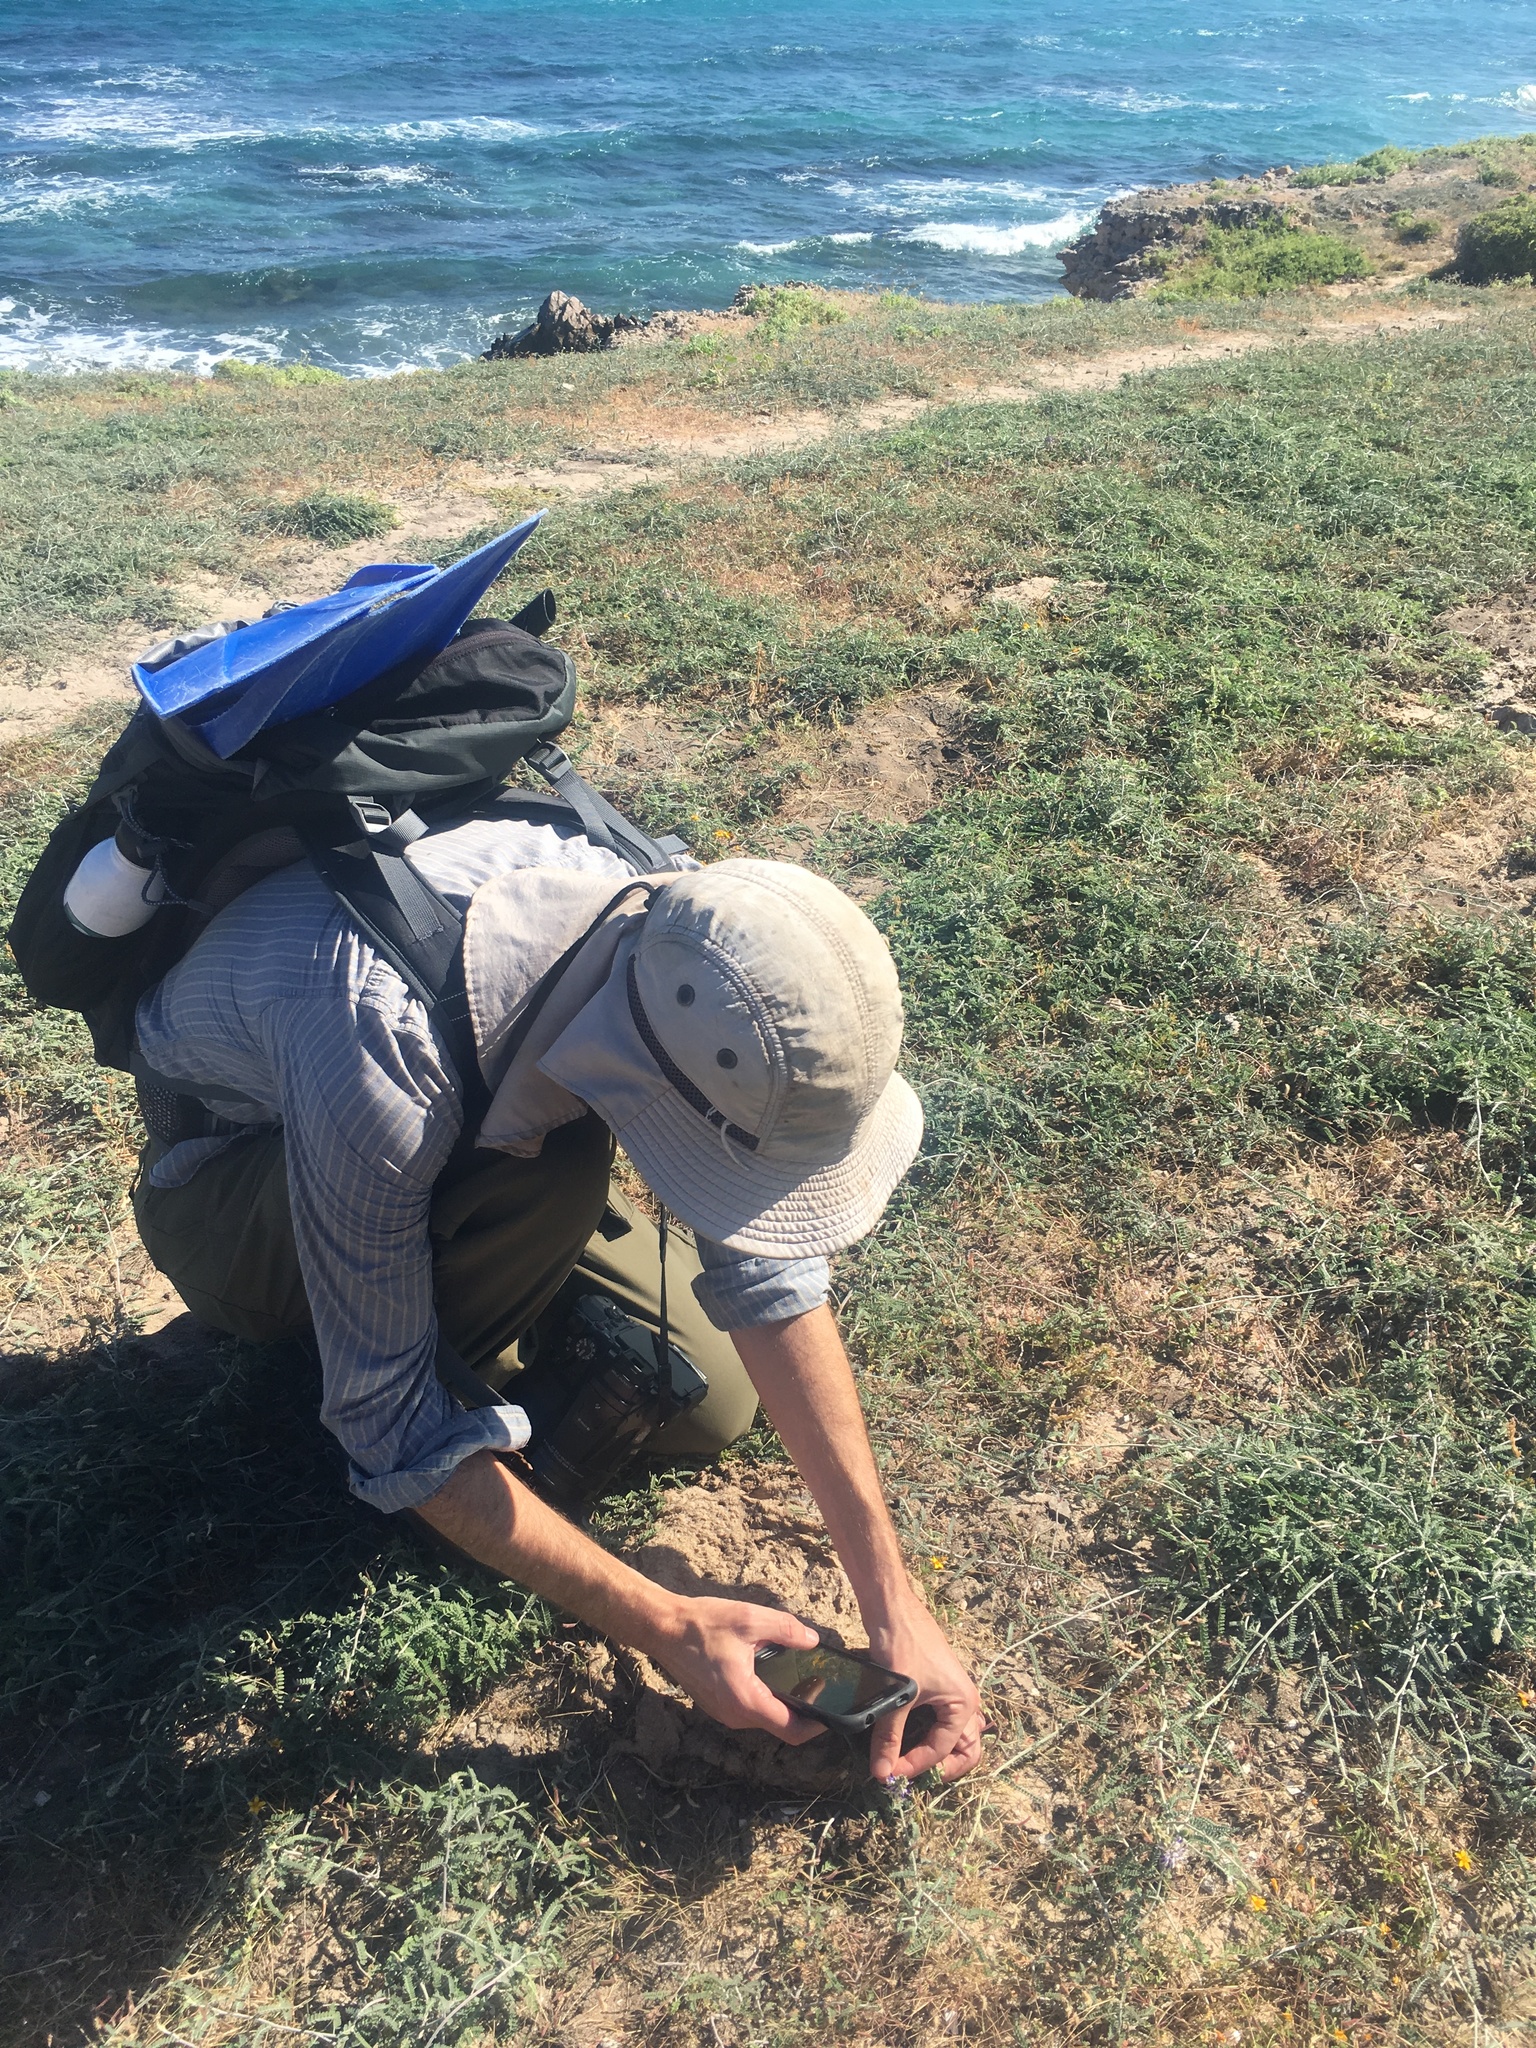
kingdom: Plantae
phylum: Tracheophyta
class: Magnoliopsida
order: Fabales
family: Fabaceae
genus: Marina
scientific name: Marina maritima
